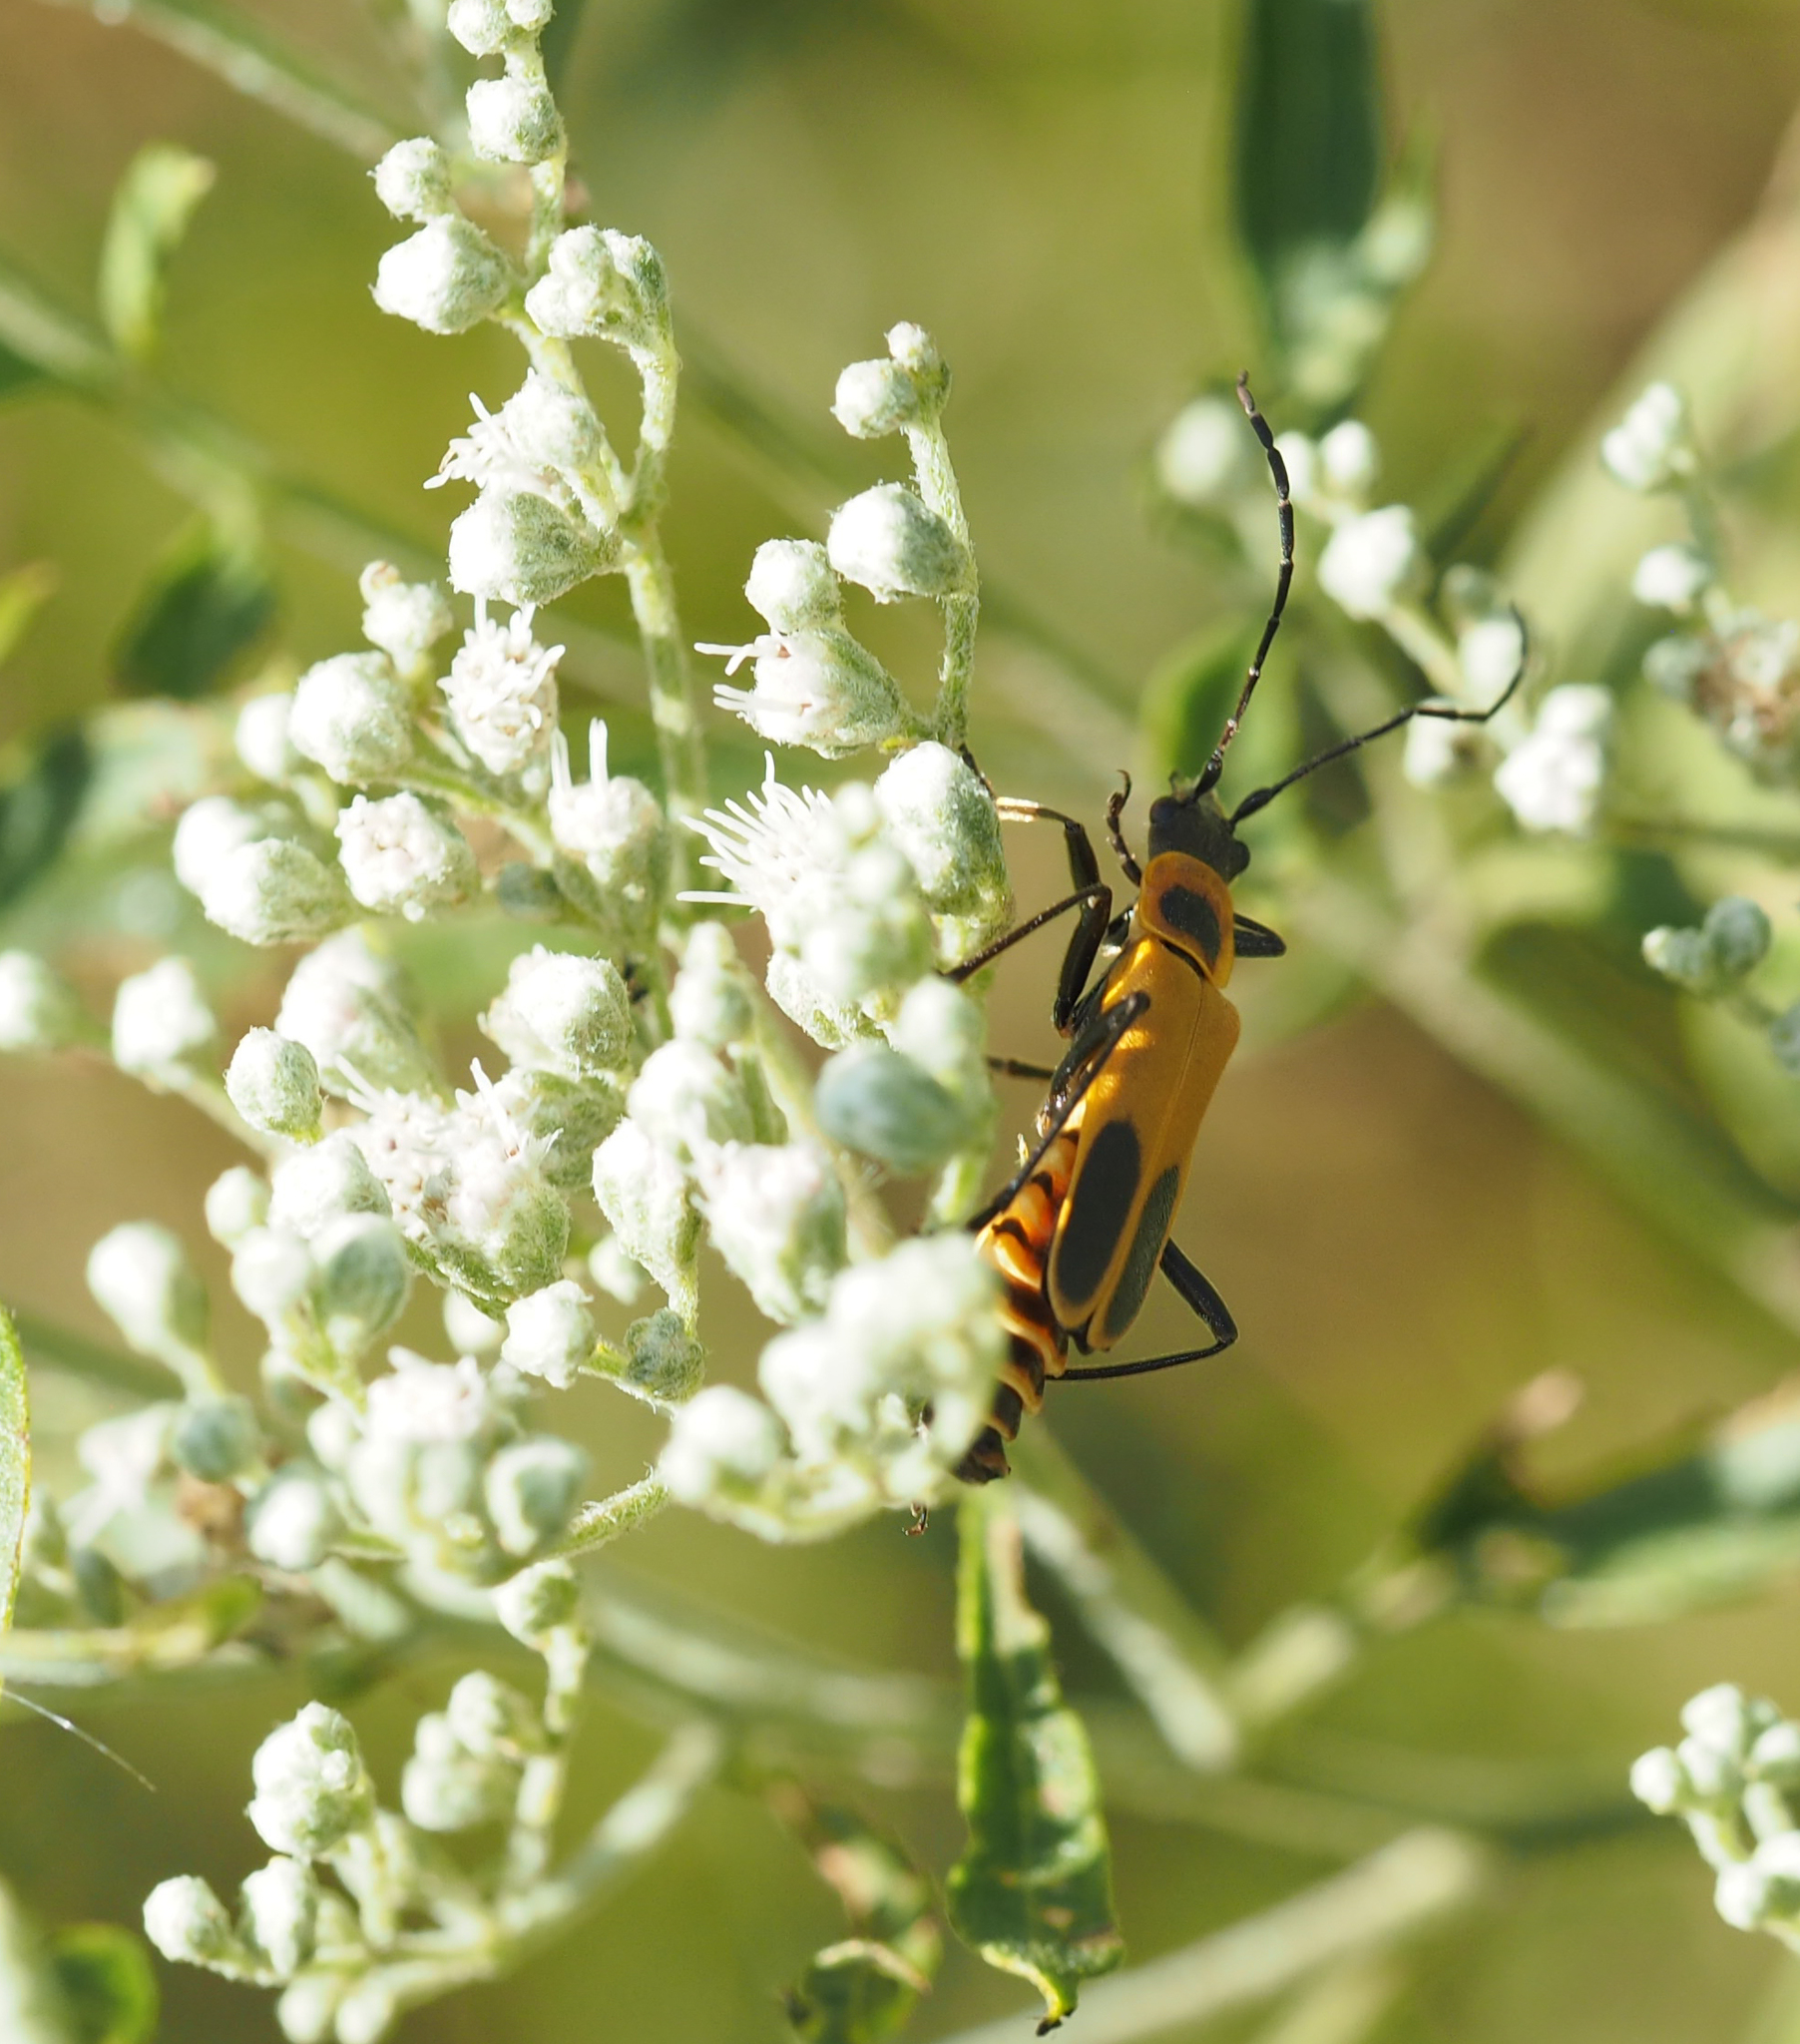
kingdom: Animalia
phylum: Arthropoda
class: Insecta
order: Coleoptera
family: Cantharidae
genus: Chauliognathus
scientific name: Chauliognathus pensylvanicus
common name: Goldenrod soldier beetle
